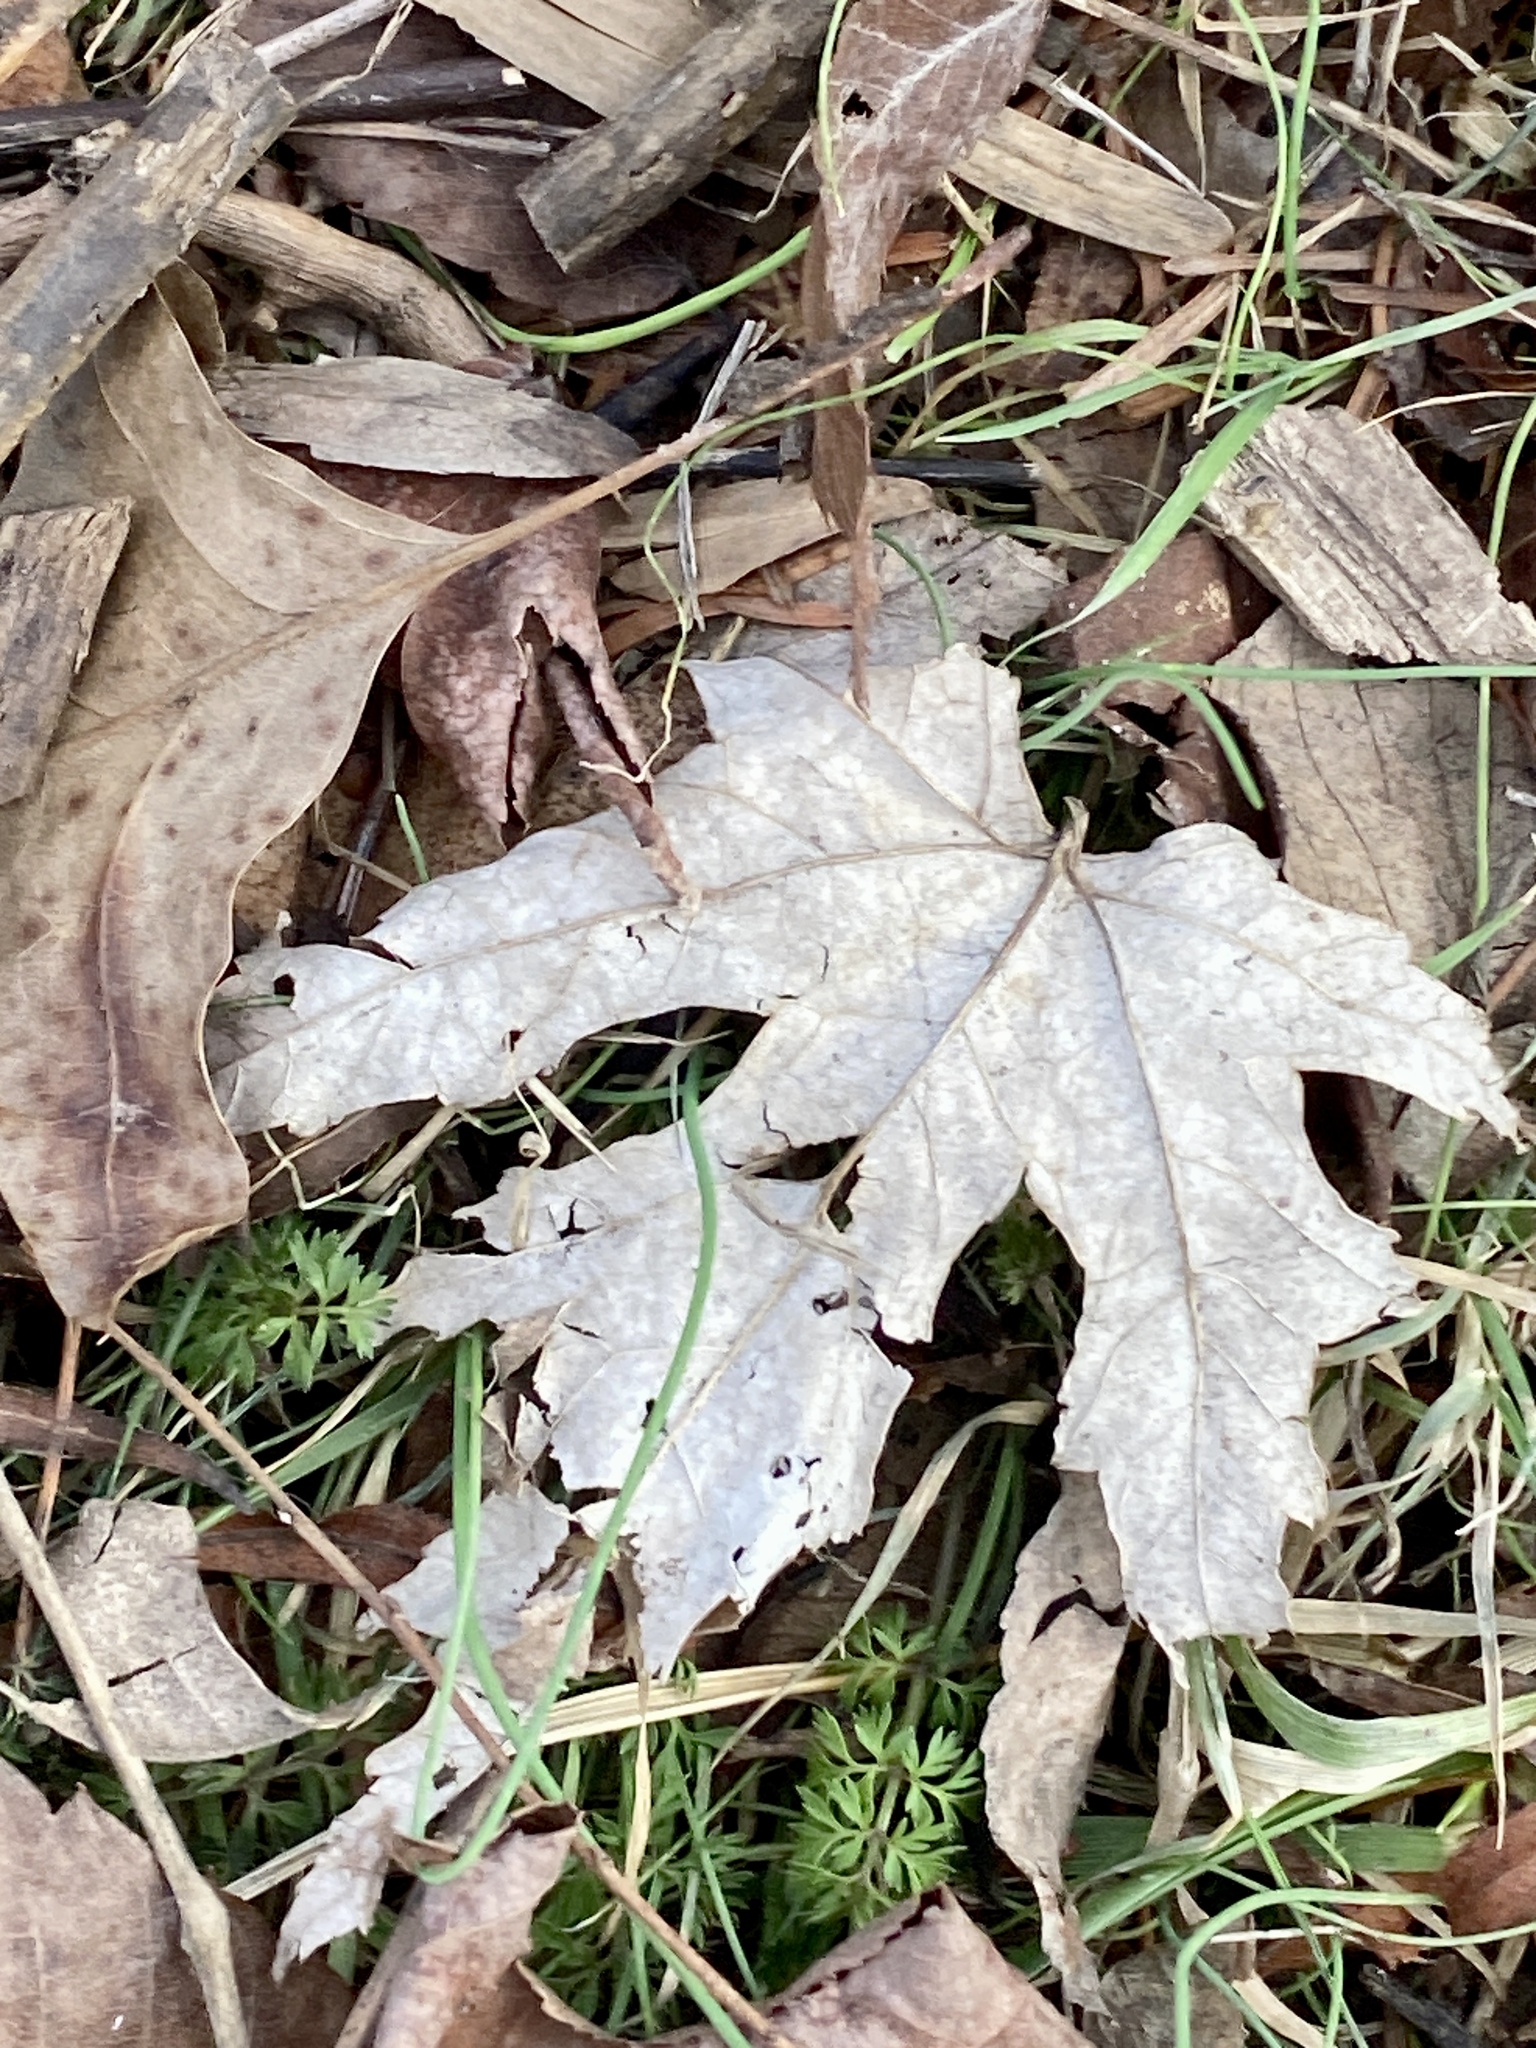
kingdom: Plantae
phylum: Tracheophyta
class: Magnoliopsida
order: Sapindales
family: Sapindaceae
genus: Acer
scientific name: Acer saccharinum
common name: Silver maple
